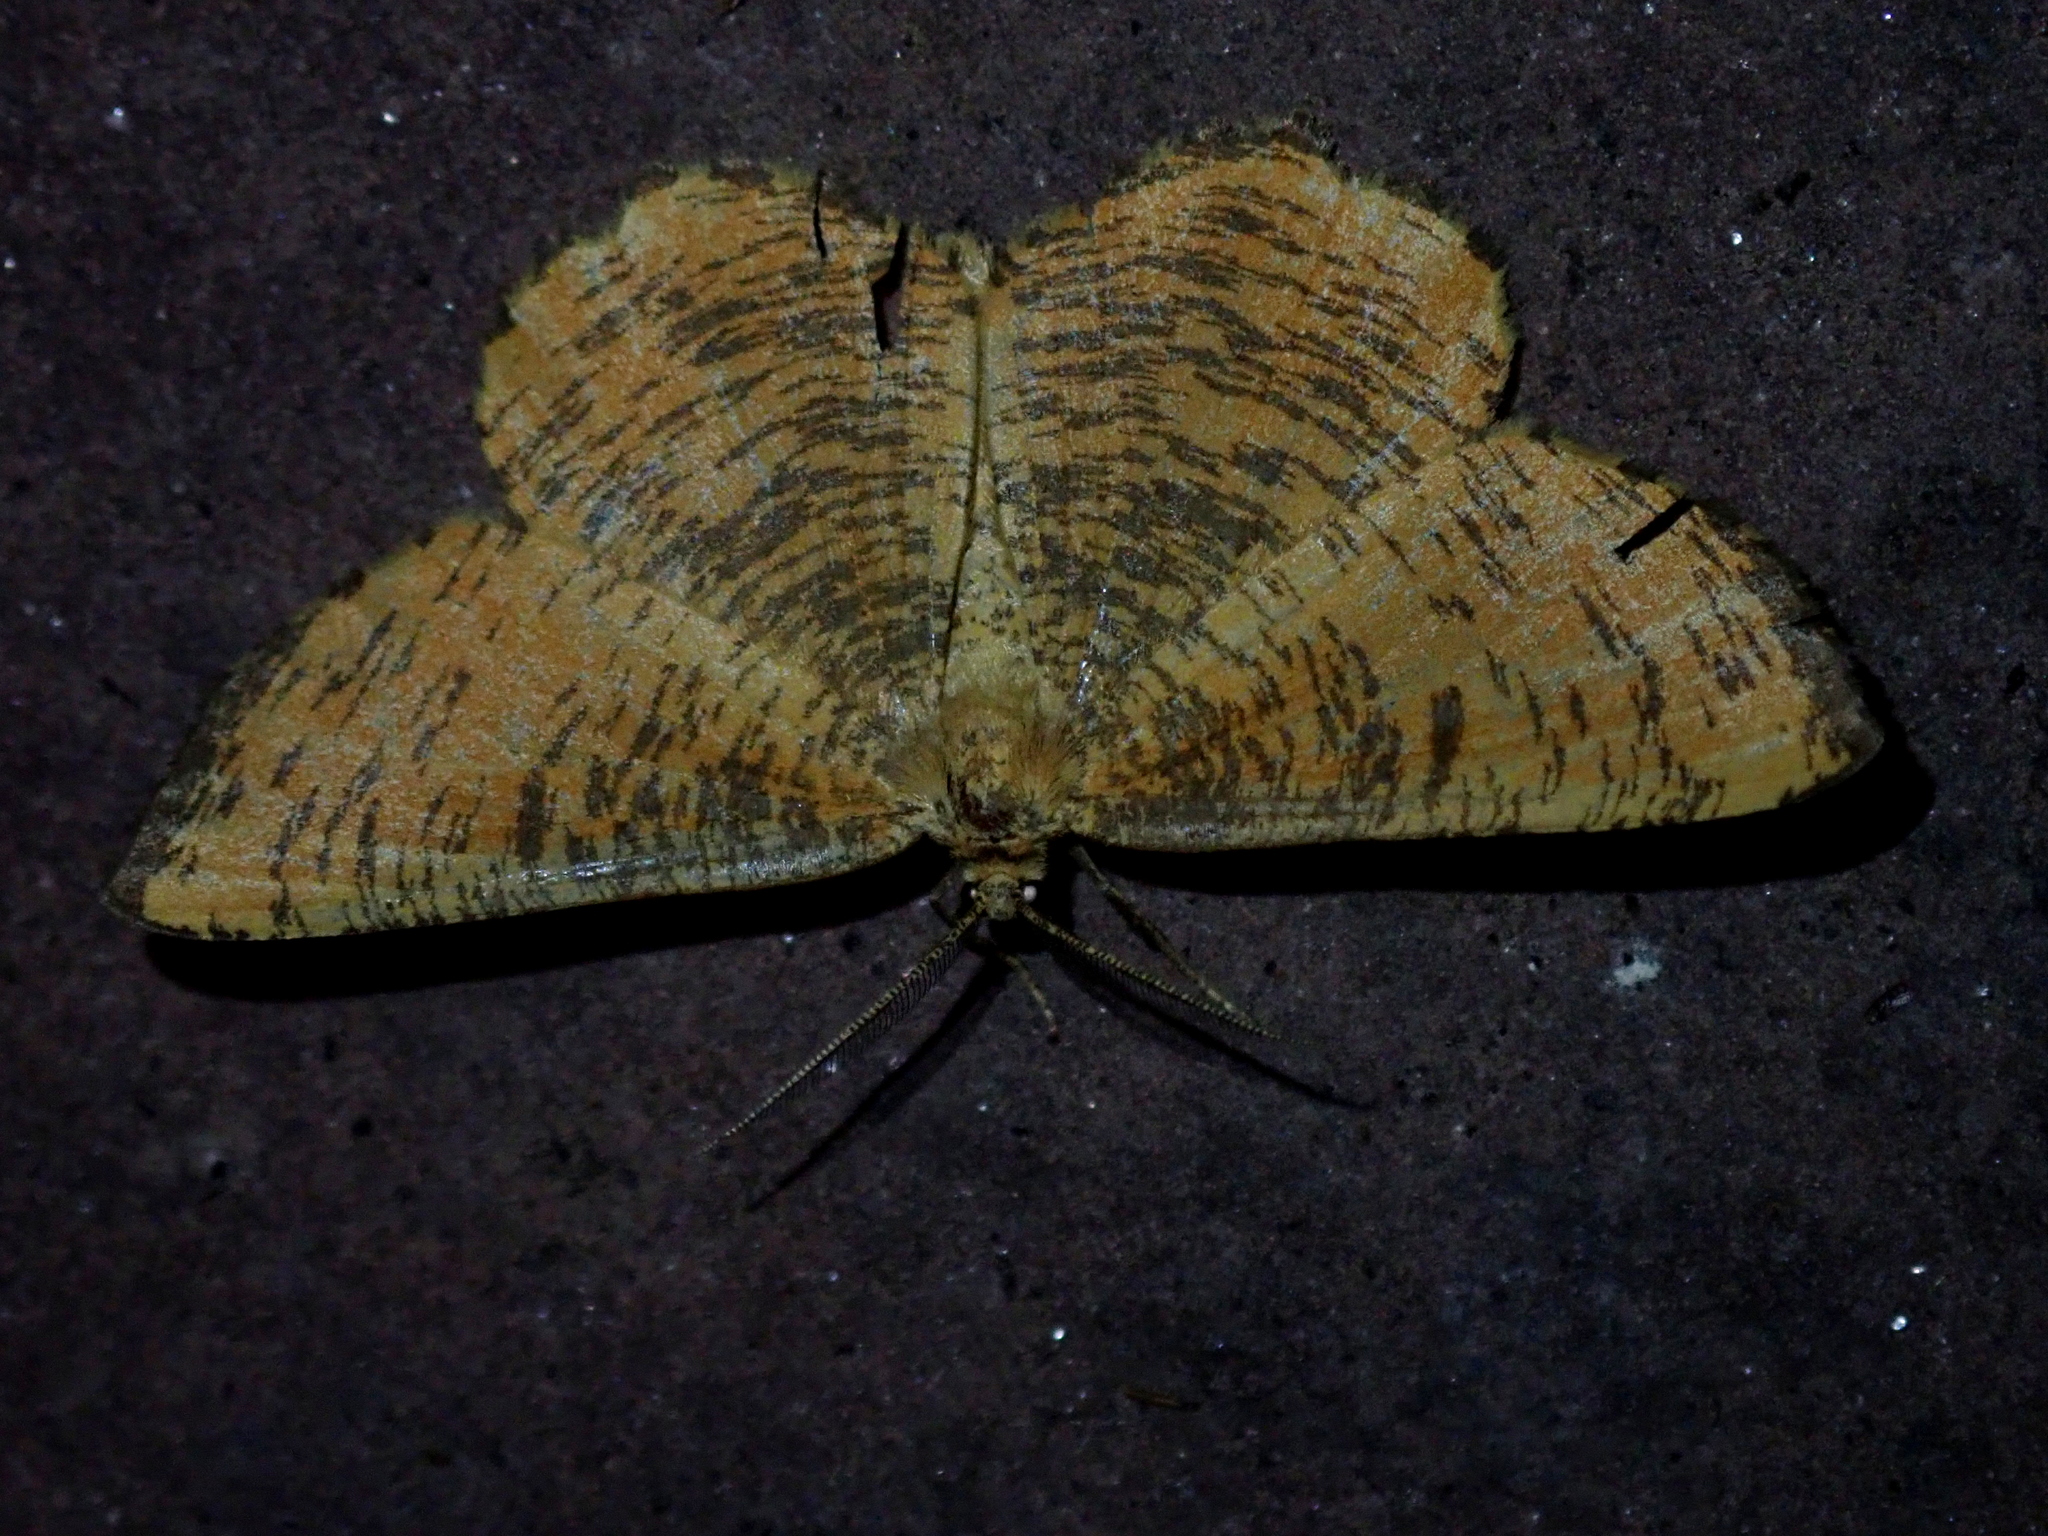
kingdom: Animalia
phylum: Arthropoda
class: Insecta
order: Lepidoptera
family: Geometridae
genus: Angerona
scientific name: Angerona prunaria
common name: Orange moth
